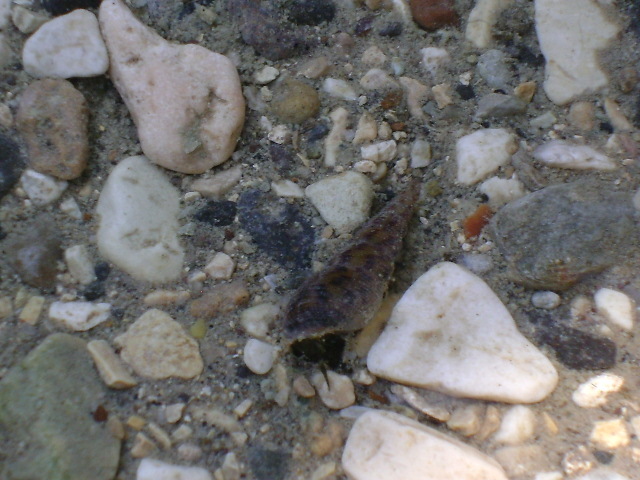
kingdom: Animalia
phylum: Mollusca
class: Gastropoda
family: Thiaridae
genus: Melanoides
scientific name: Melanoides tuberculata
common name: Red-rim melania
